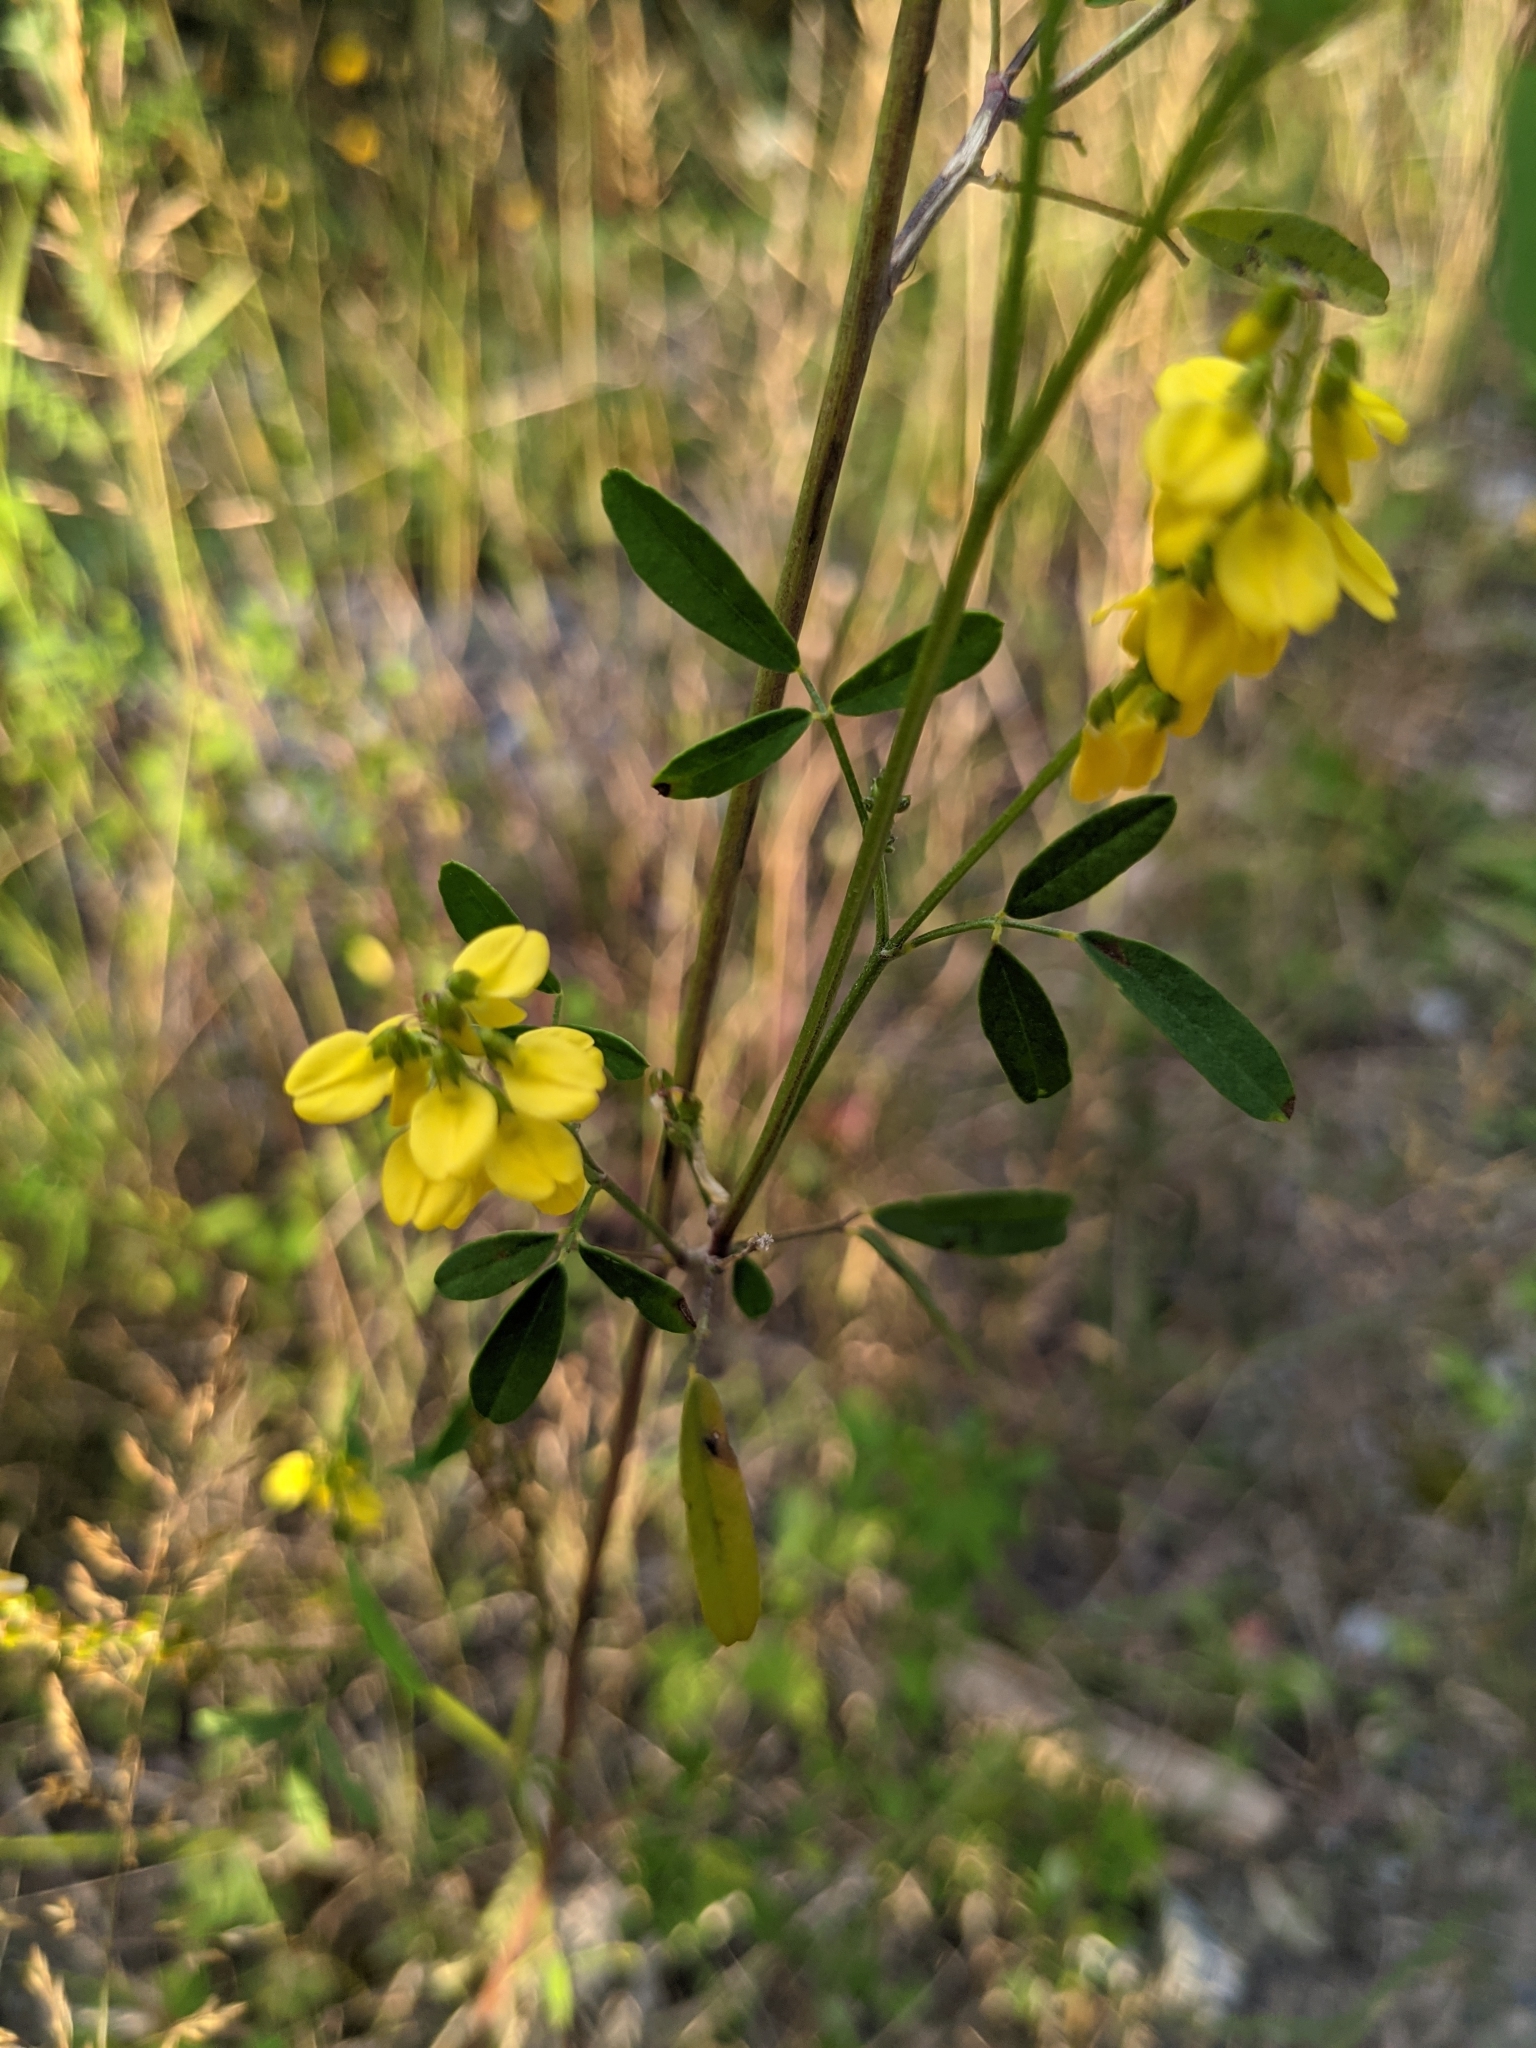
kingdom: Plantae
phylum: Tracheophyta
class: Magnoliopsida
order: Fabales
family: Fabaceae
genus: Melilotus
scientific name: Melilotus officinalis
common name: Sweetclover
